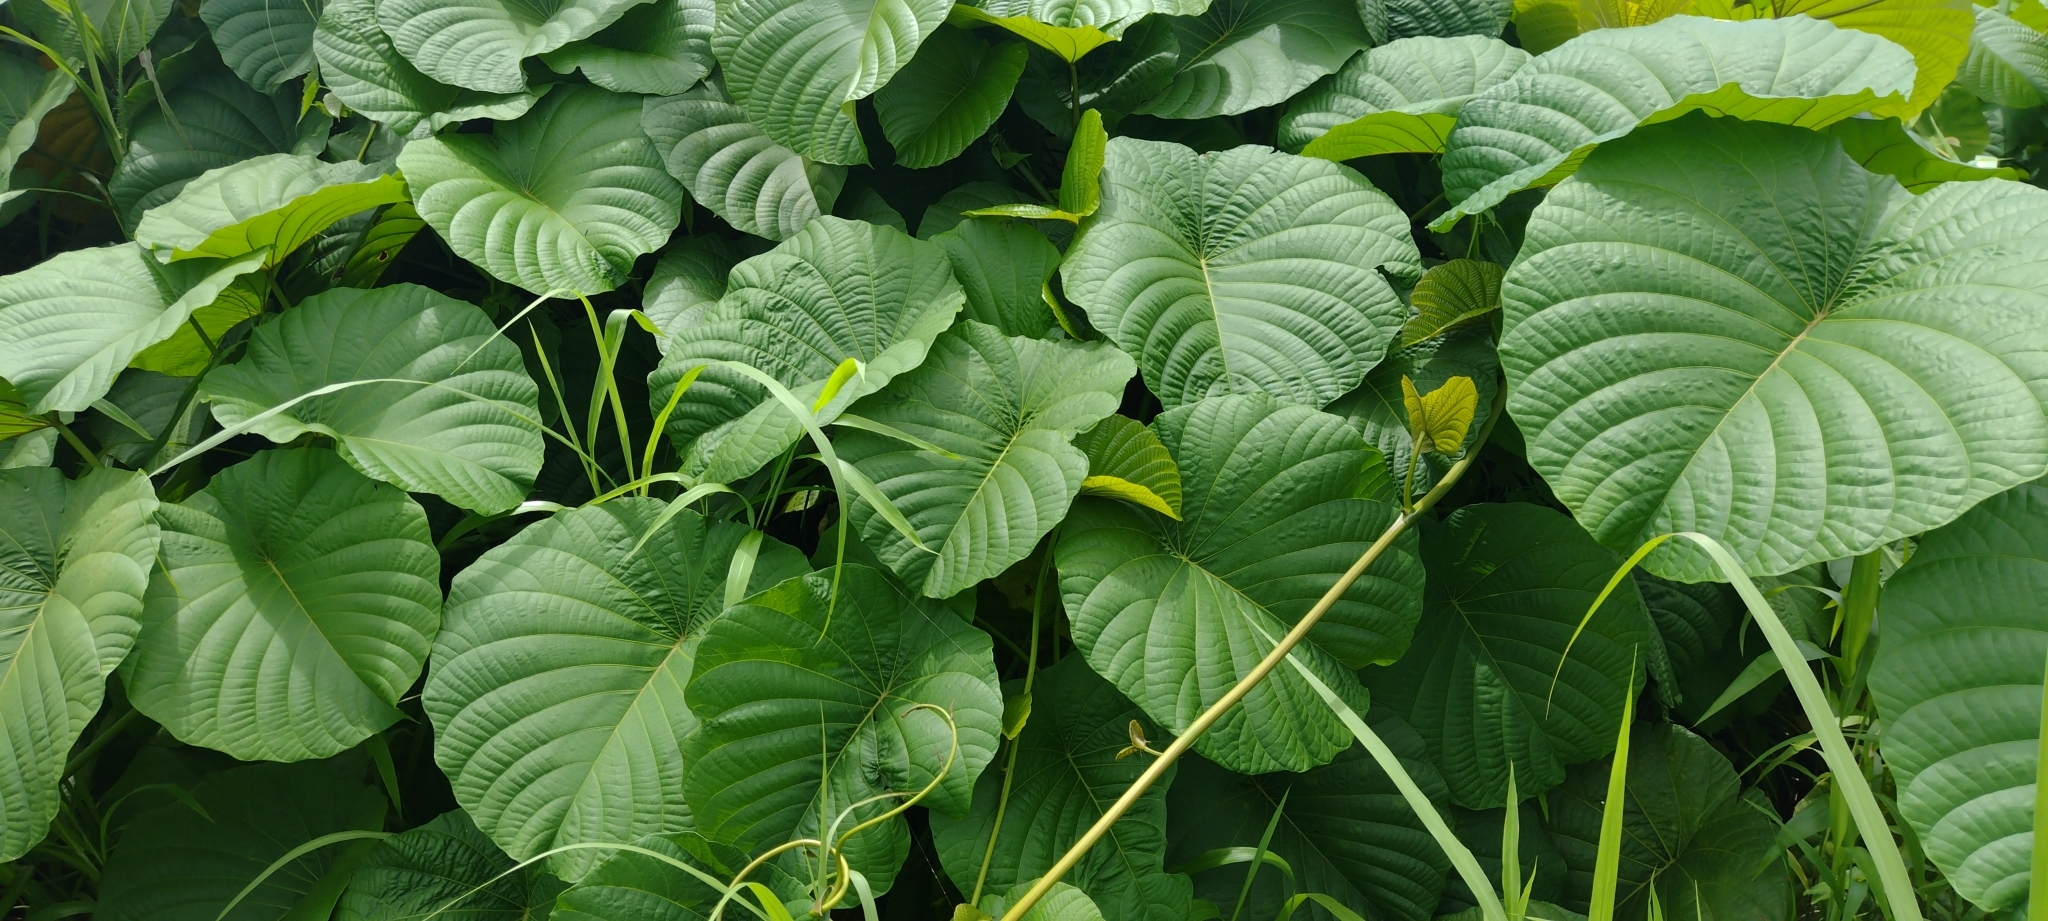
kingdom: Plantae
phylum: Tracheophyta
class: Magnoliopsida
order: Solanales
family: Convolvulaceae
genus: Decalobanthus
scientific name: Decalobanthus peltatus
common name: Merremia
